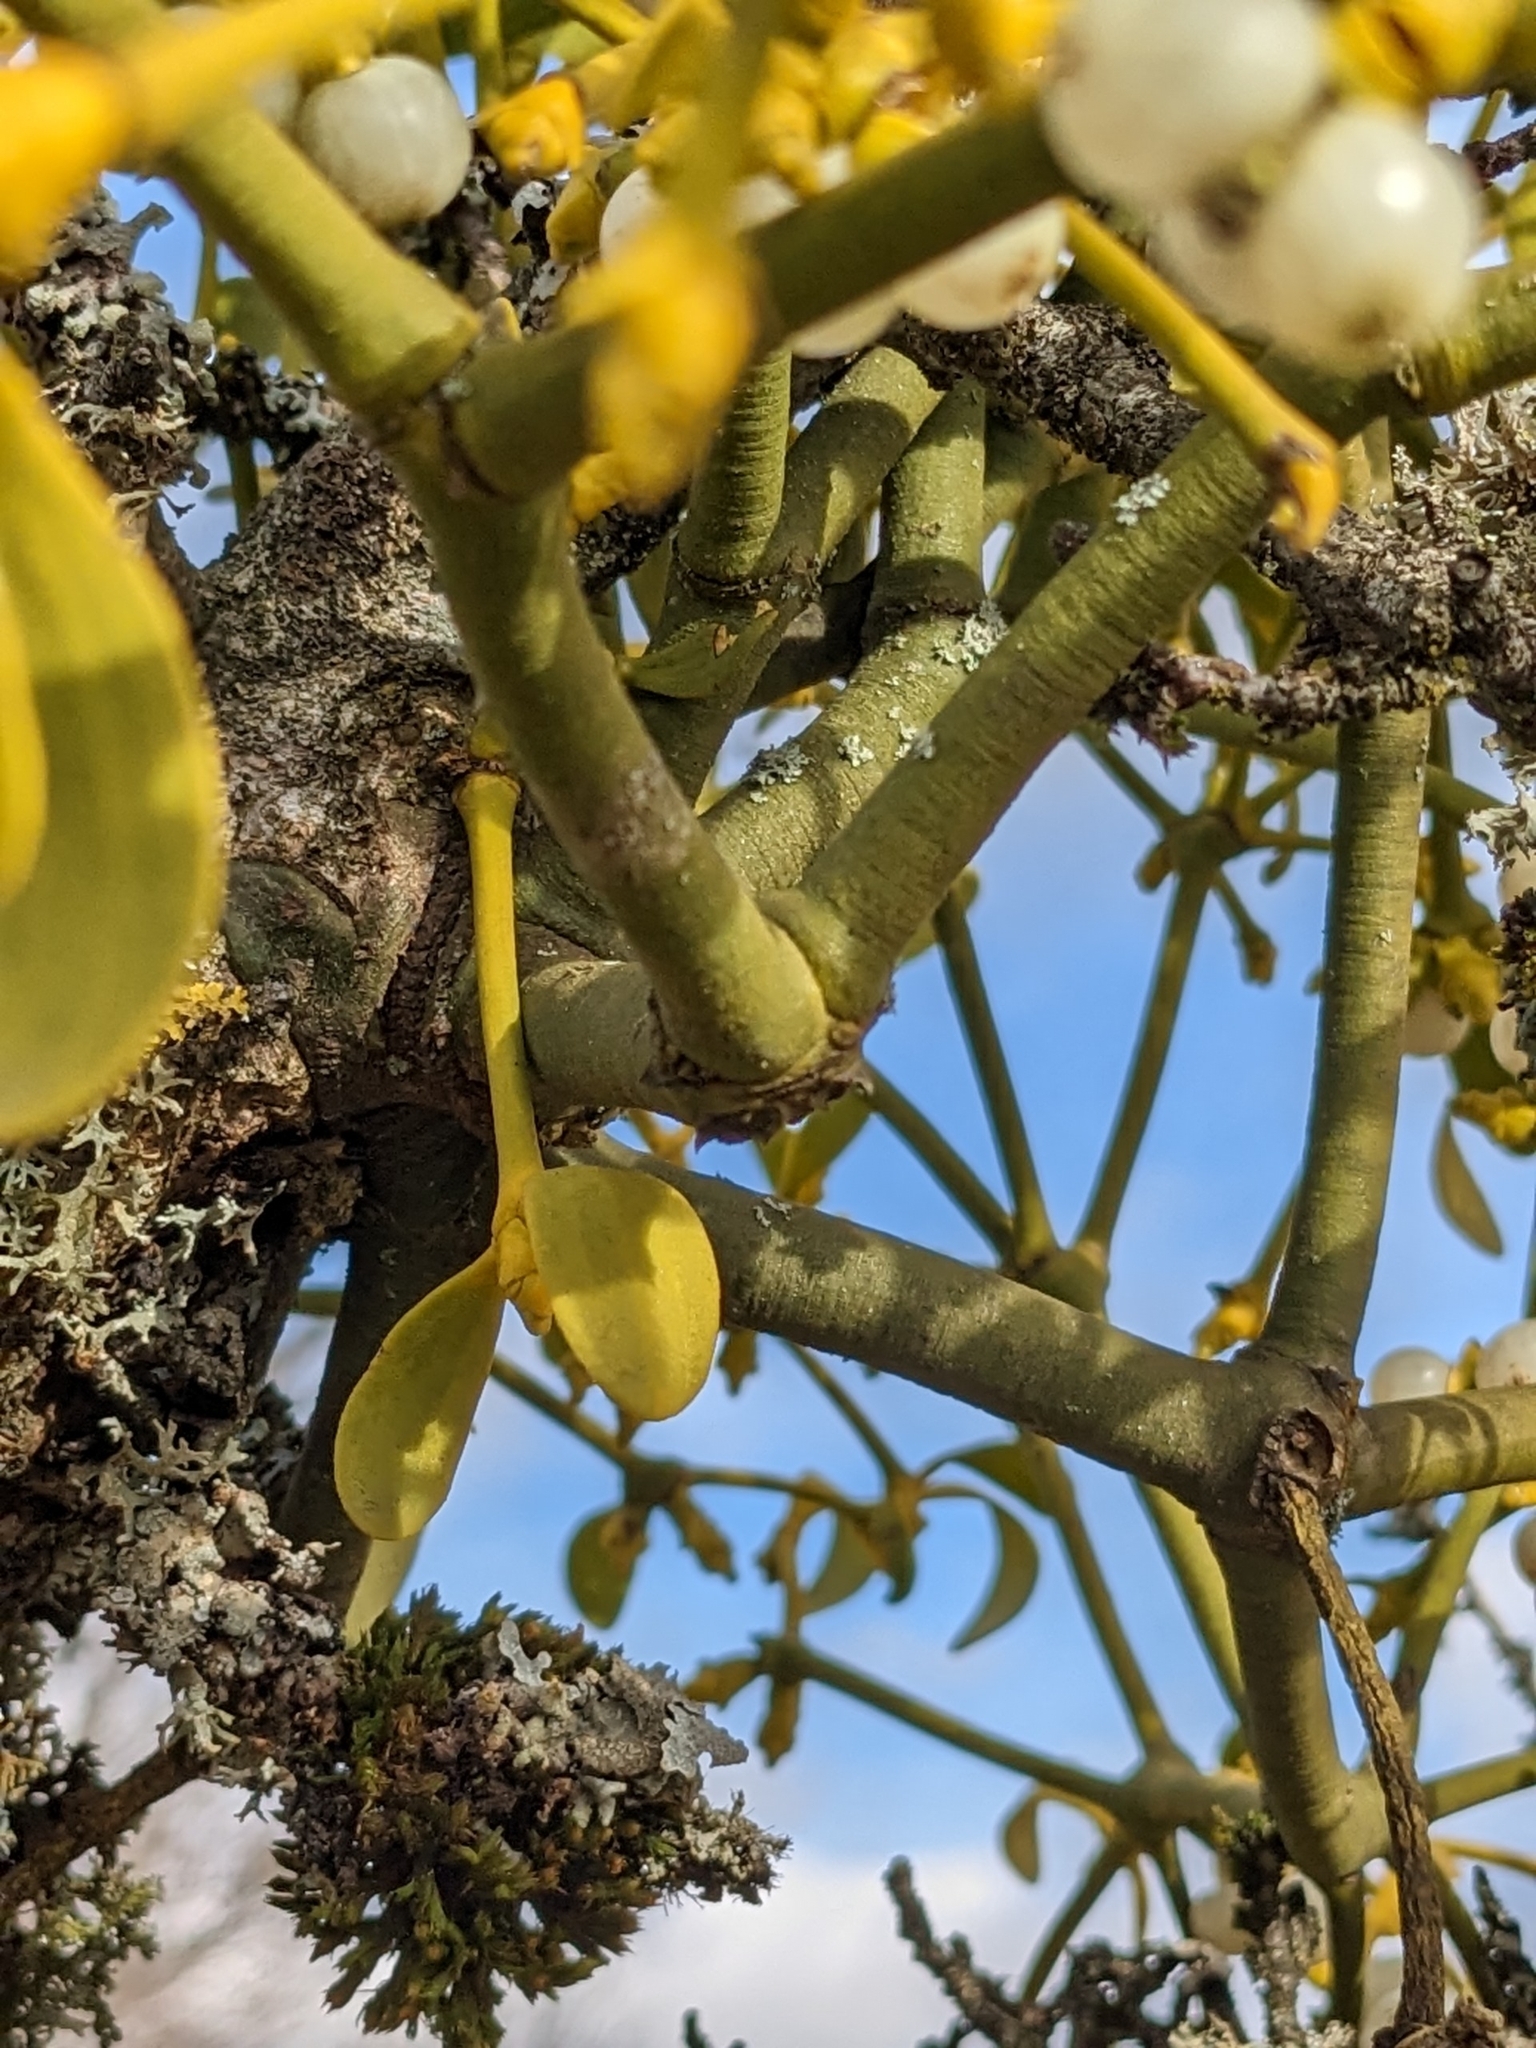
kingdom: Plantae
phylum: Tracheophyta
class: Magnoliopsida
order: Santalales
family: Viscaceae
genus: Viscum
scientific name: Viscum album
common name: Mistletoe
